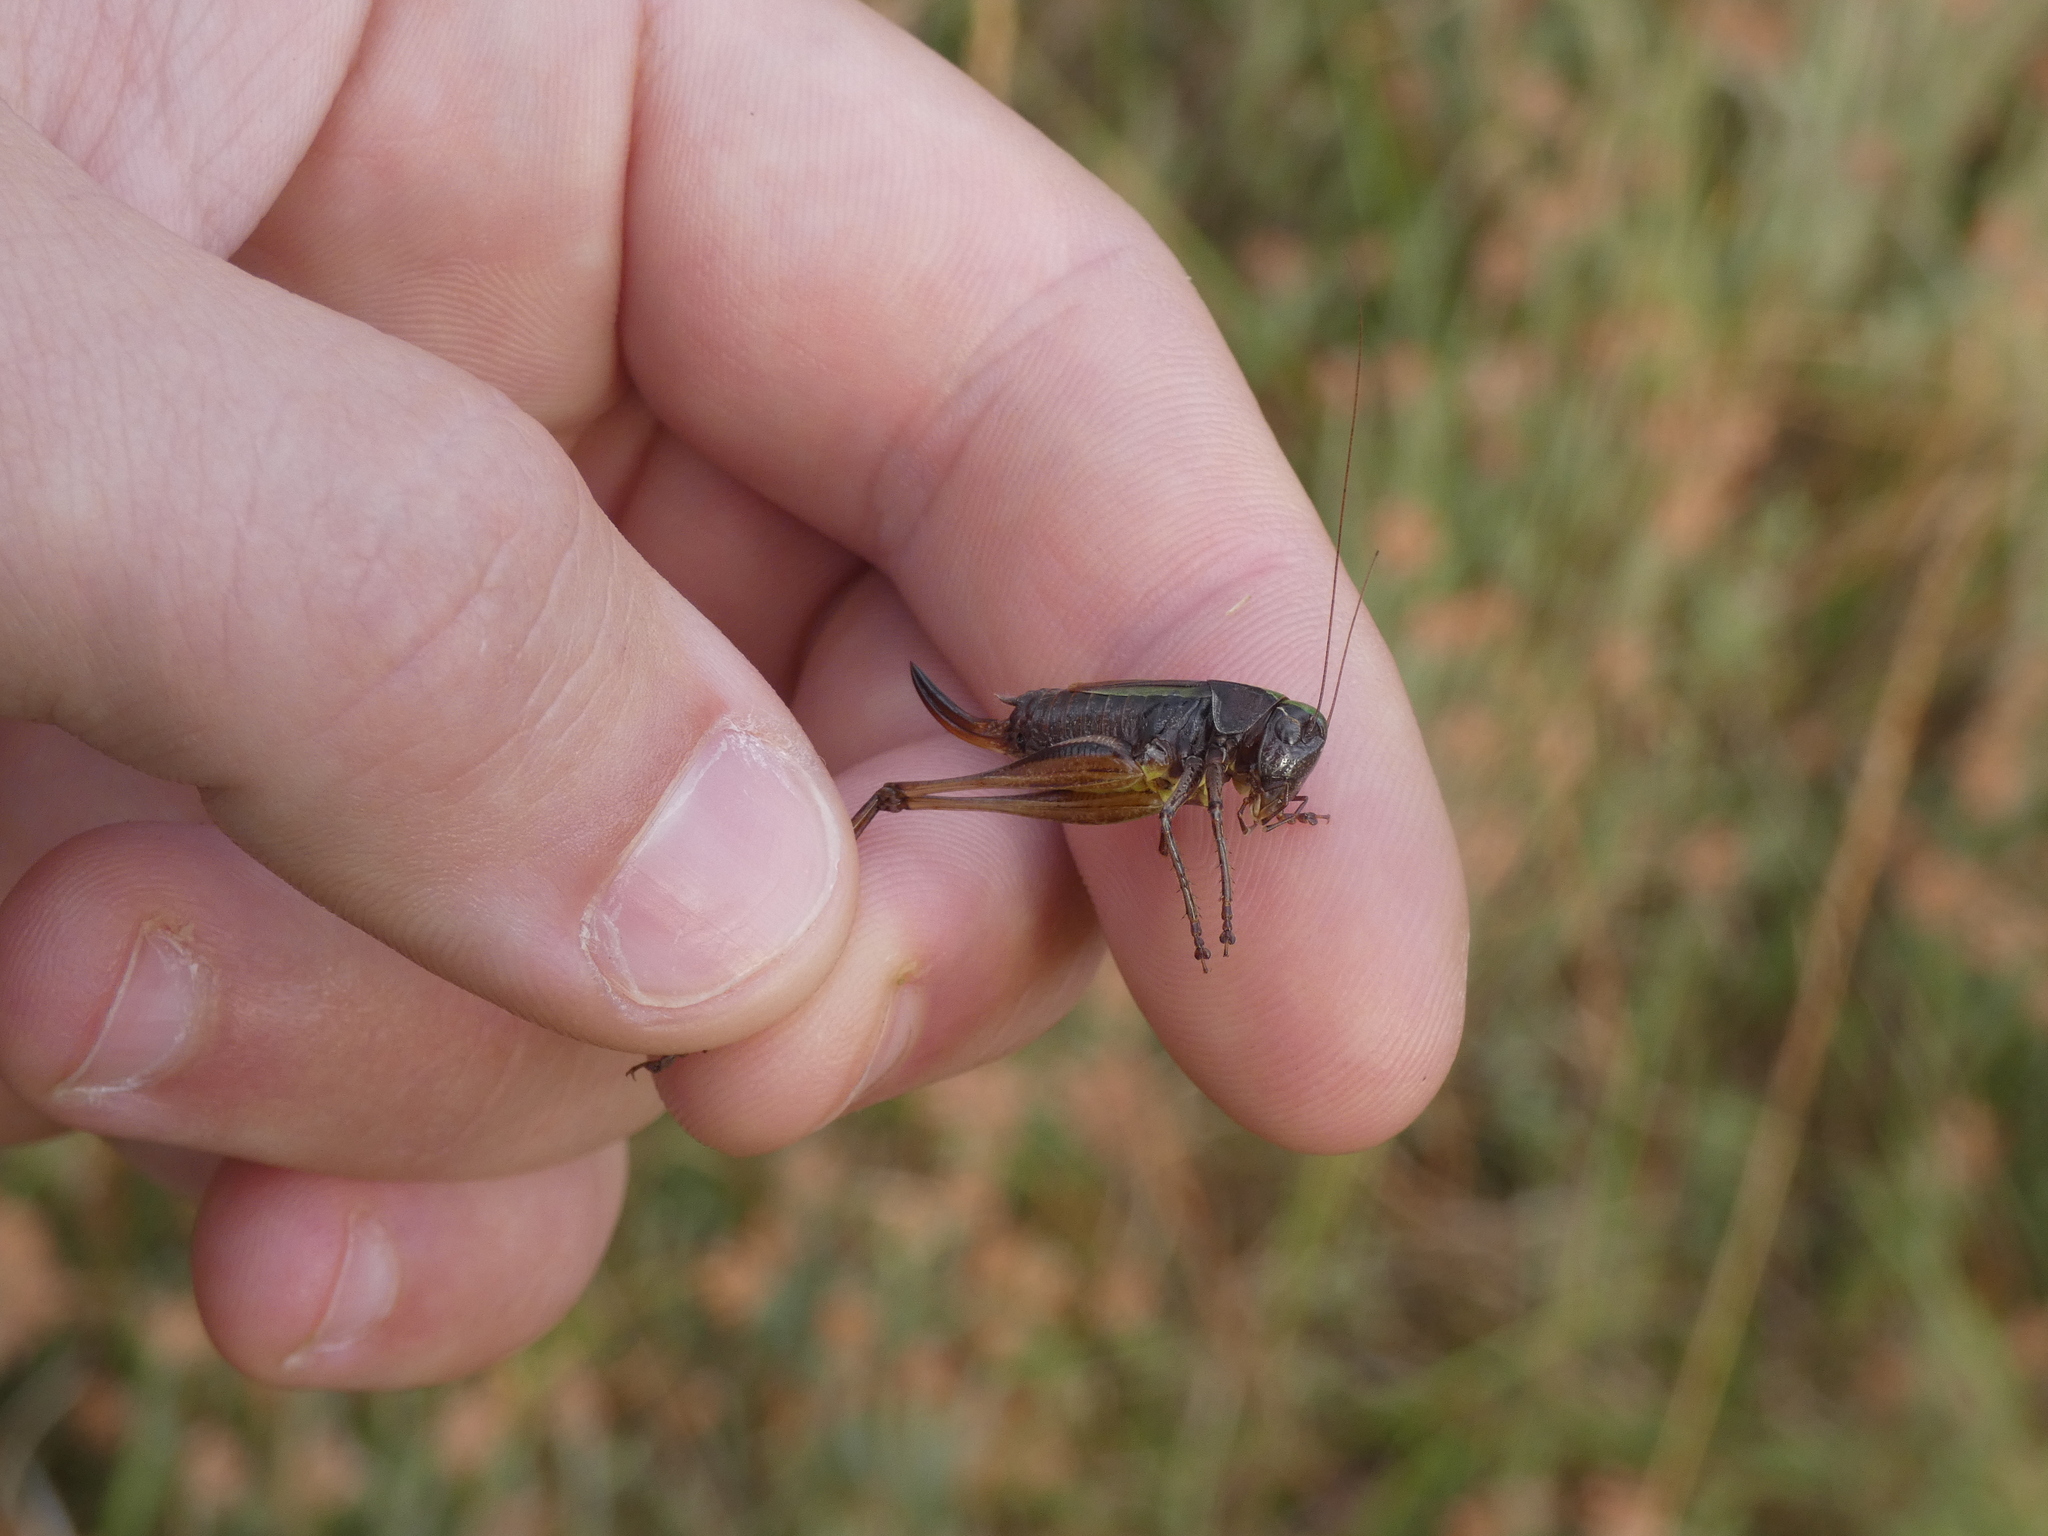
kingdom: Animalia
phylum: Arthropoda
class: Insecta
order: Orthoptera
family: Tettigoniidae
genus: Metrioptera
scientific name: Metrioptera brachyptera
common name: Bog bush-cricket
